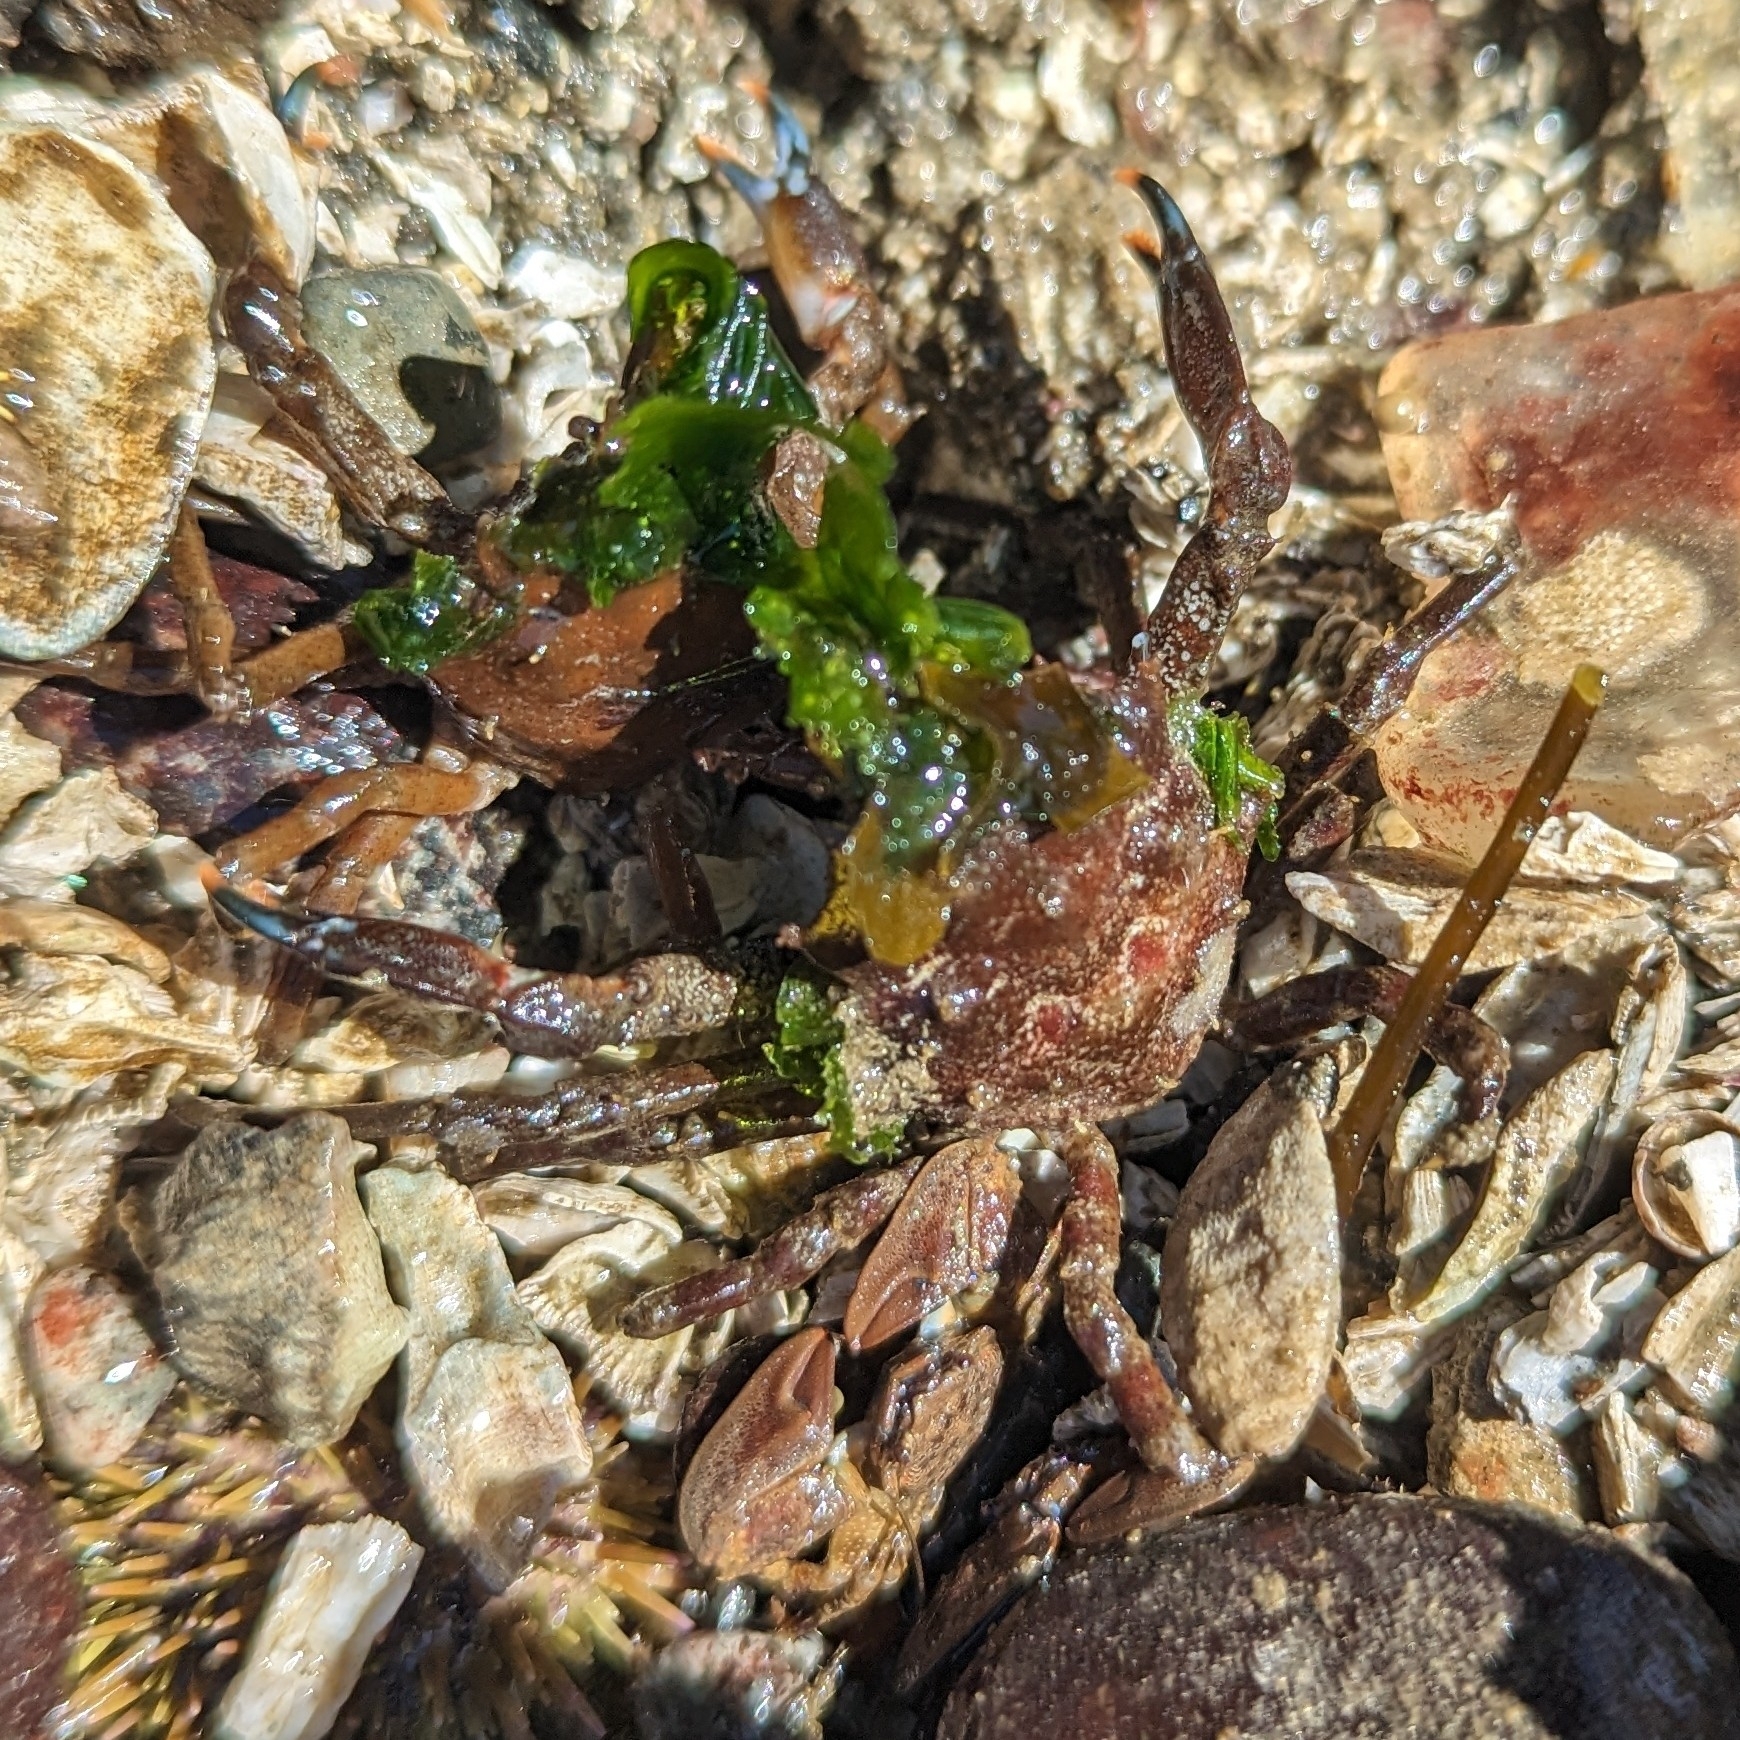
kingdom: Animalia
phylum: Arthropoda
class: Malacostraca
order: Decapoda
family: Epialtidae
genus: Pugettia
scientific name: Pugettia gracilis
